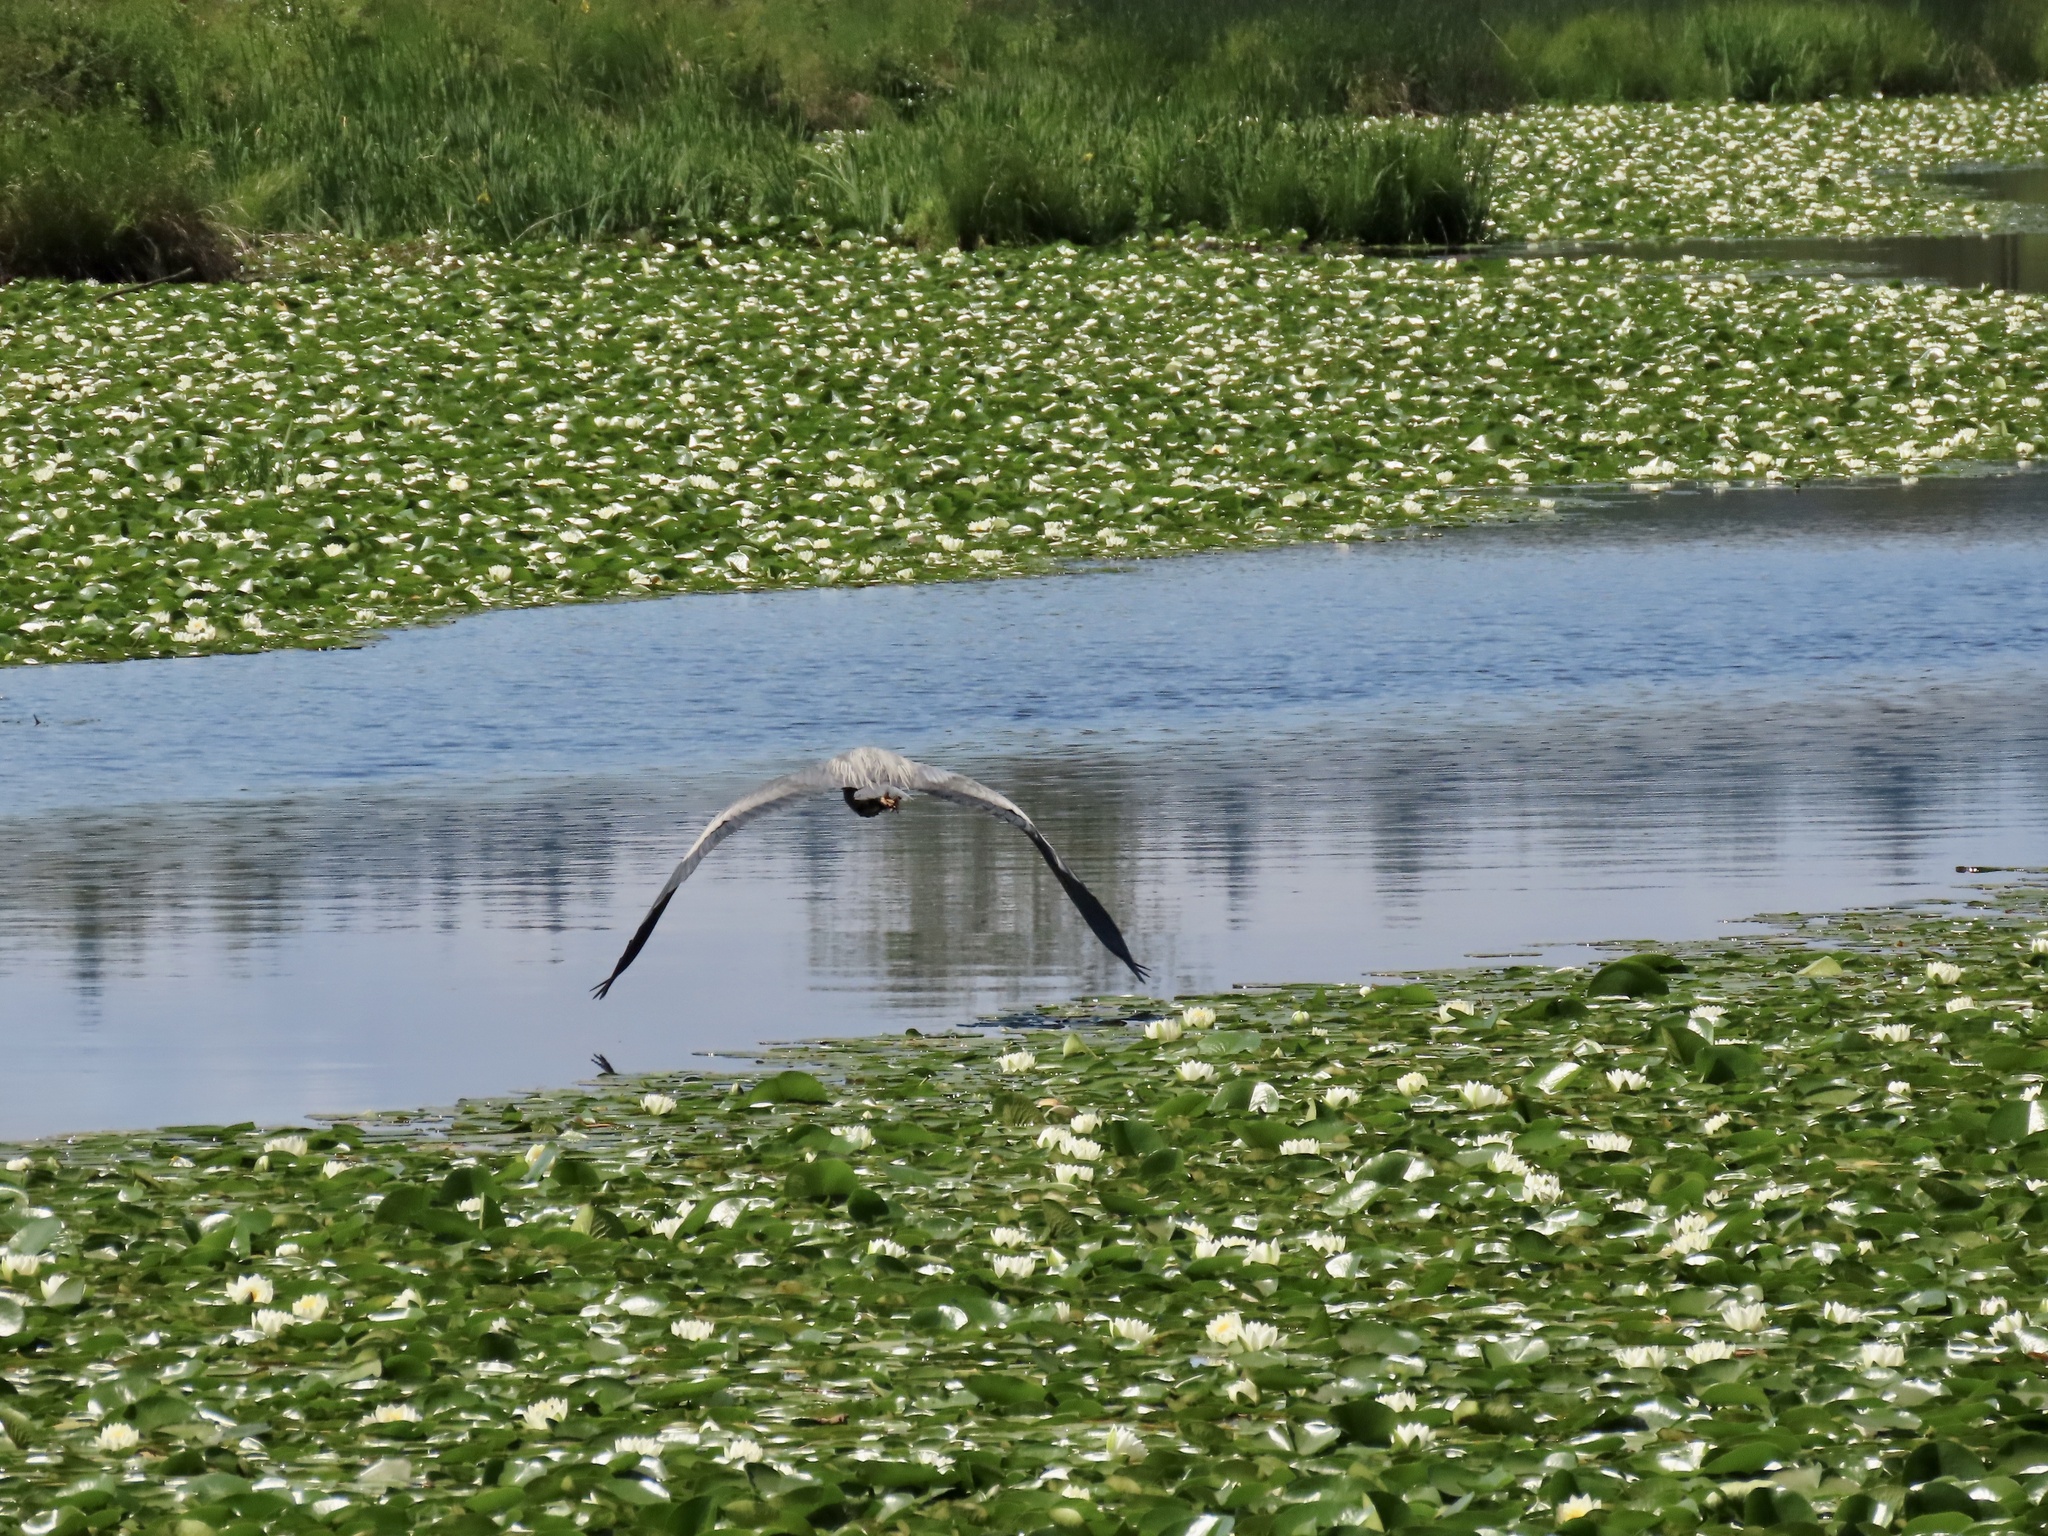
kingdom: Animalia
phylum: Chordata
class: Aves
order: Pelecaniformes
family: Ardeidae
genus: Ardea
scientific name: Ardea herodias
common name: Great blue heron
